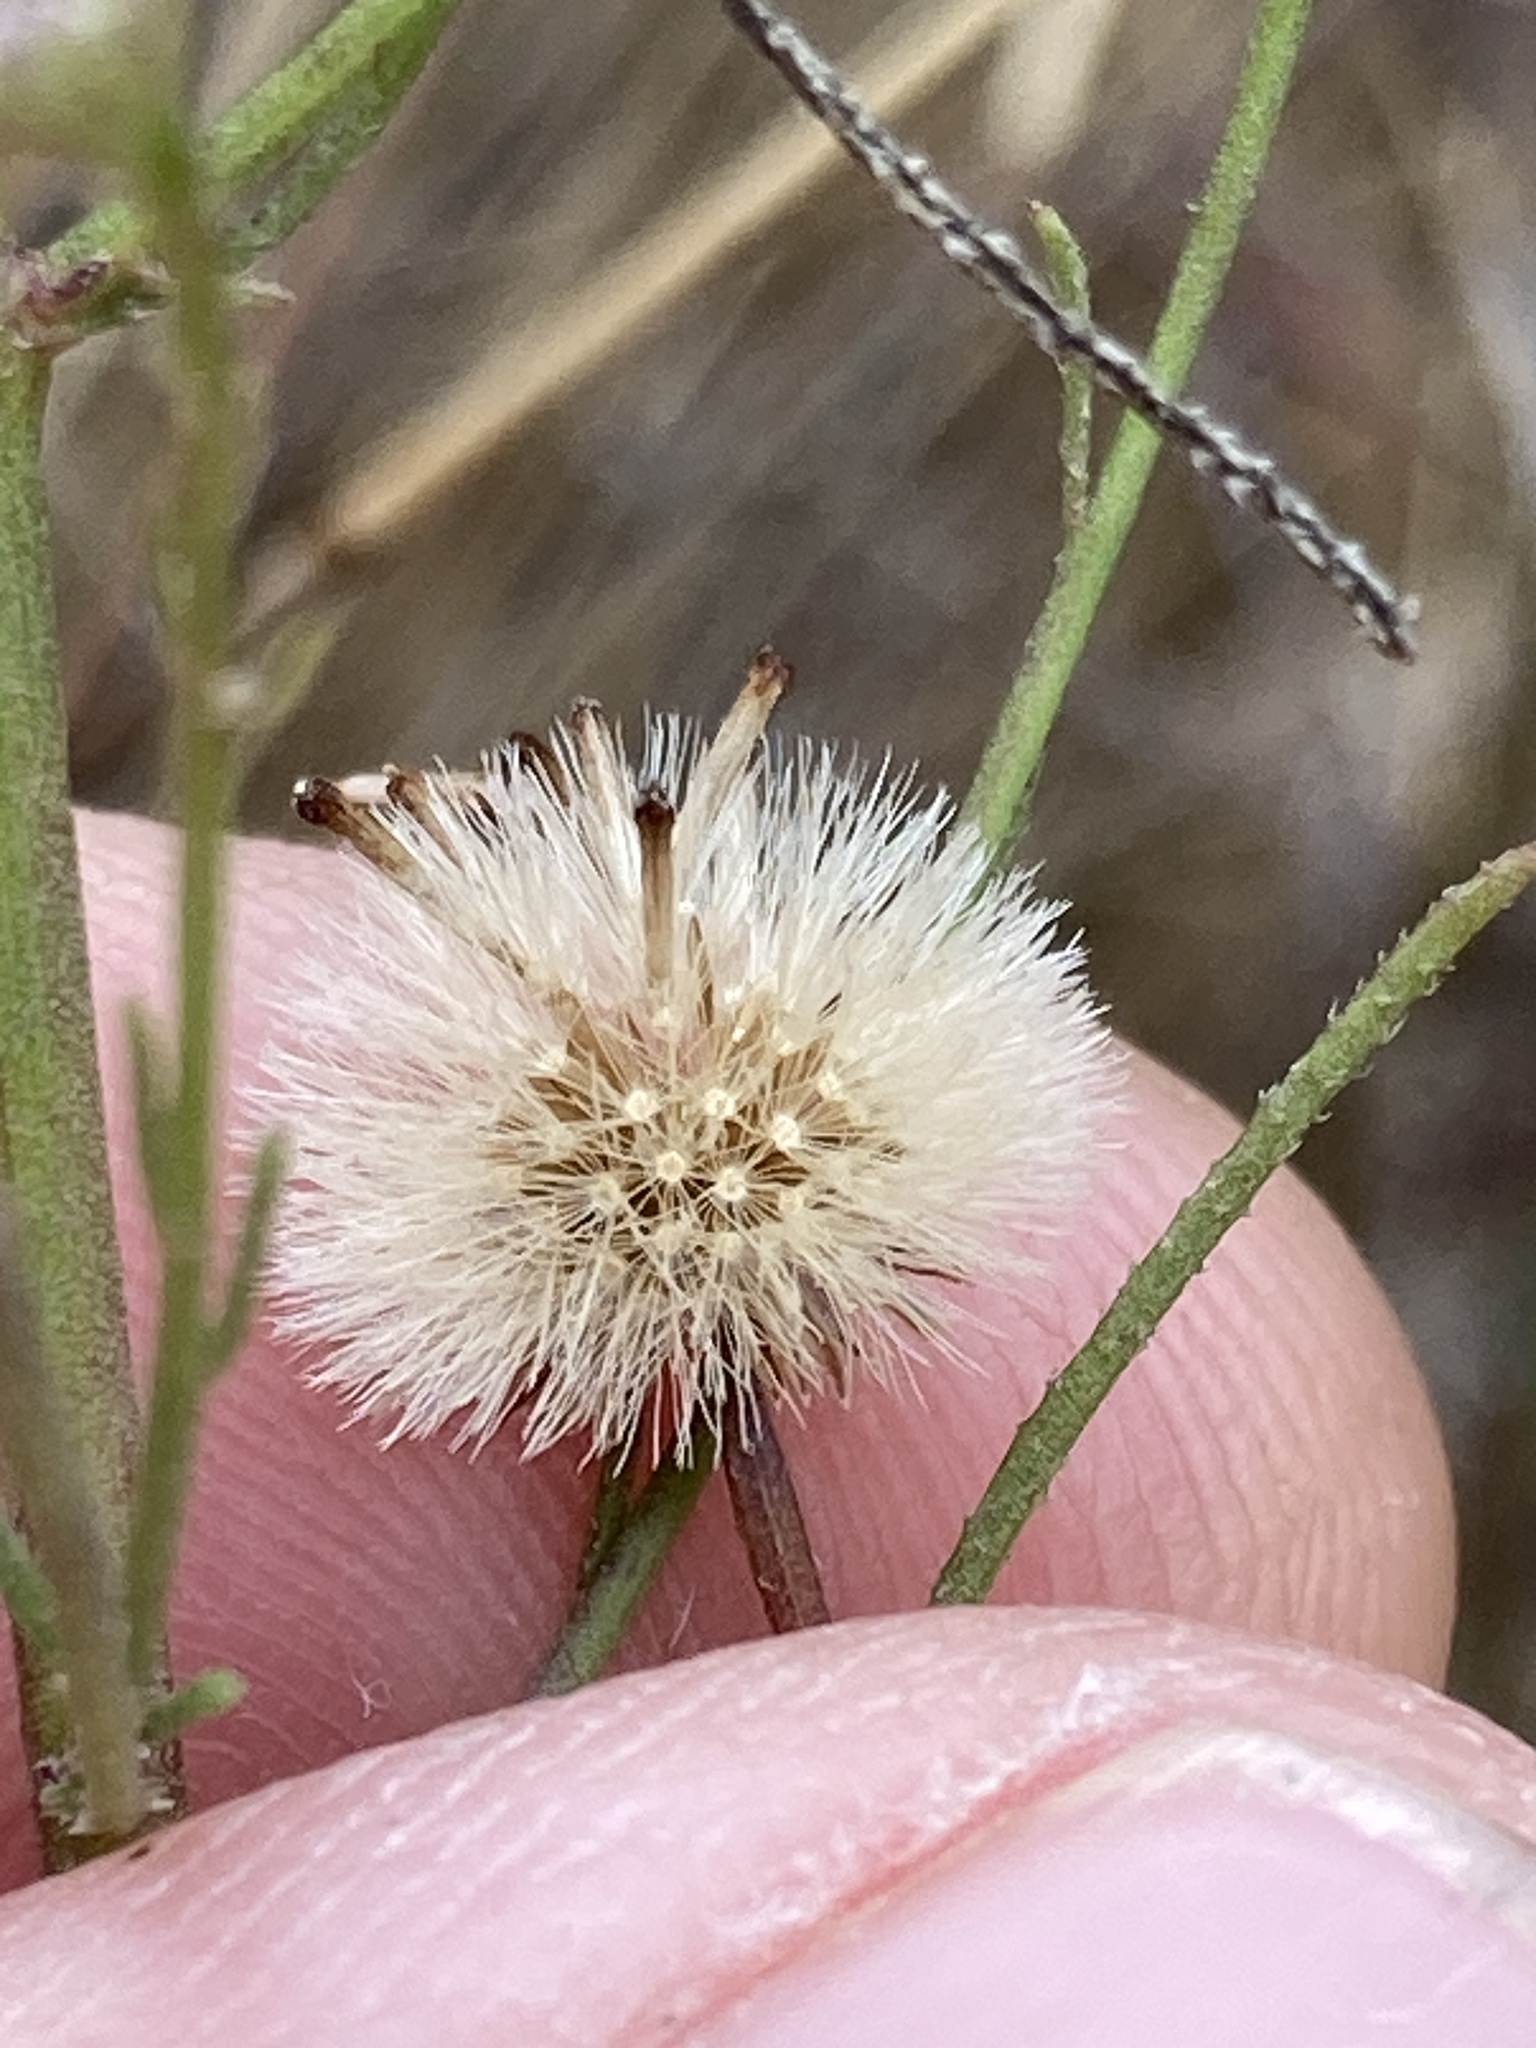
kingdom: Plantae
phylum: Tracheophyta
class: Magnoliopsida
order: Asterales
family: Asteraceae
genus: Erigeron
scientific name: Erigeron foliosus
